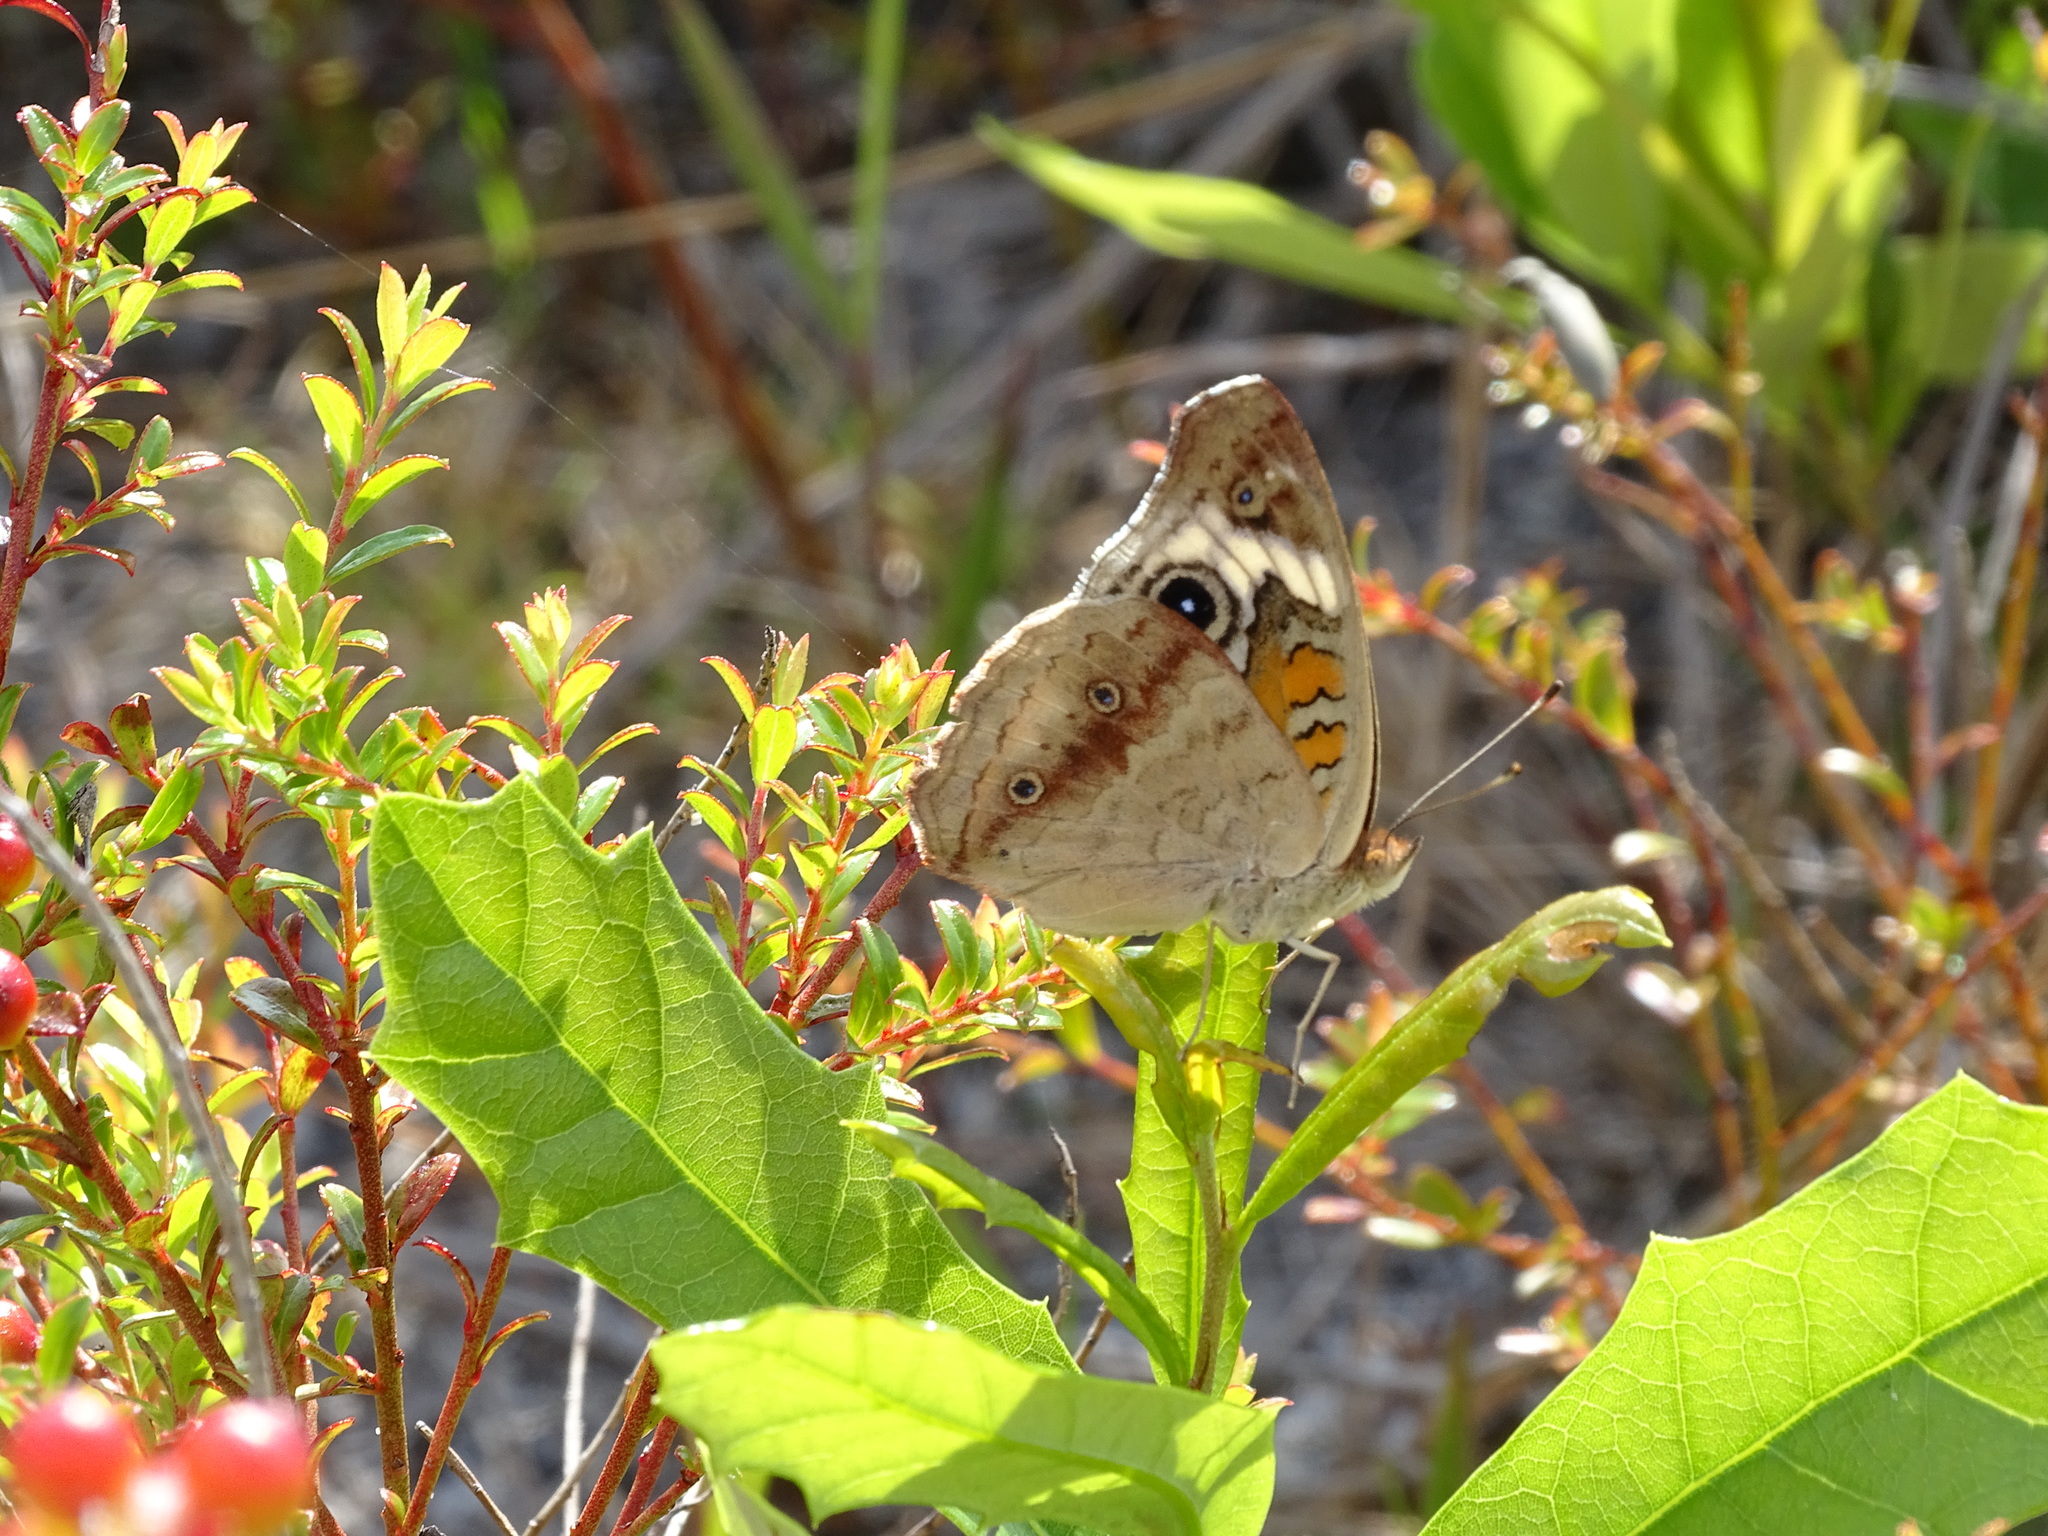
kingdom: Animalia
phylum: Arthropoda
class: Insecta
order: Lepidoptera
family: Nymphalidae
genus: Junonia
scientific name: Junonia coenia
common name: Common buckeye
